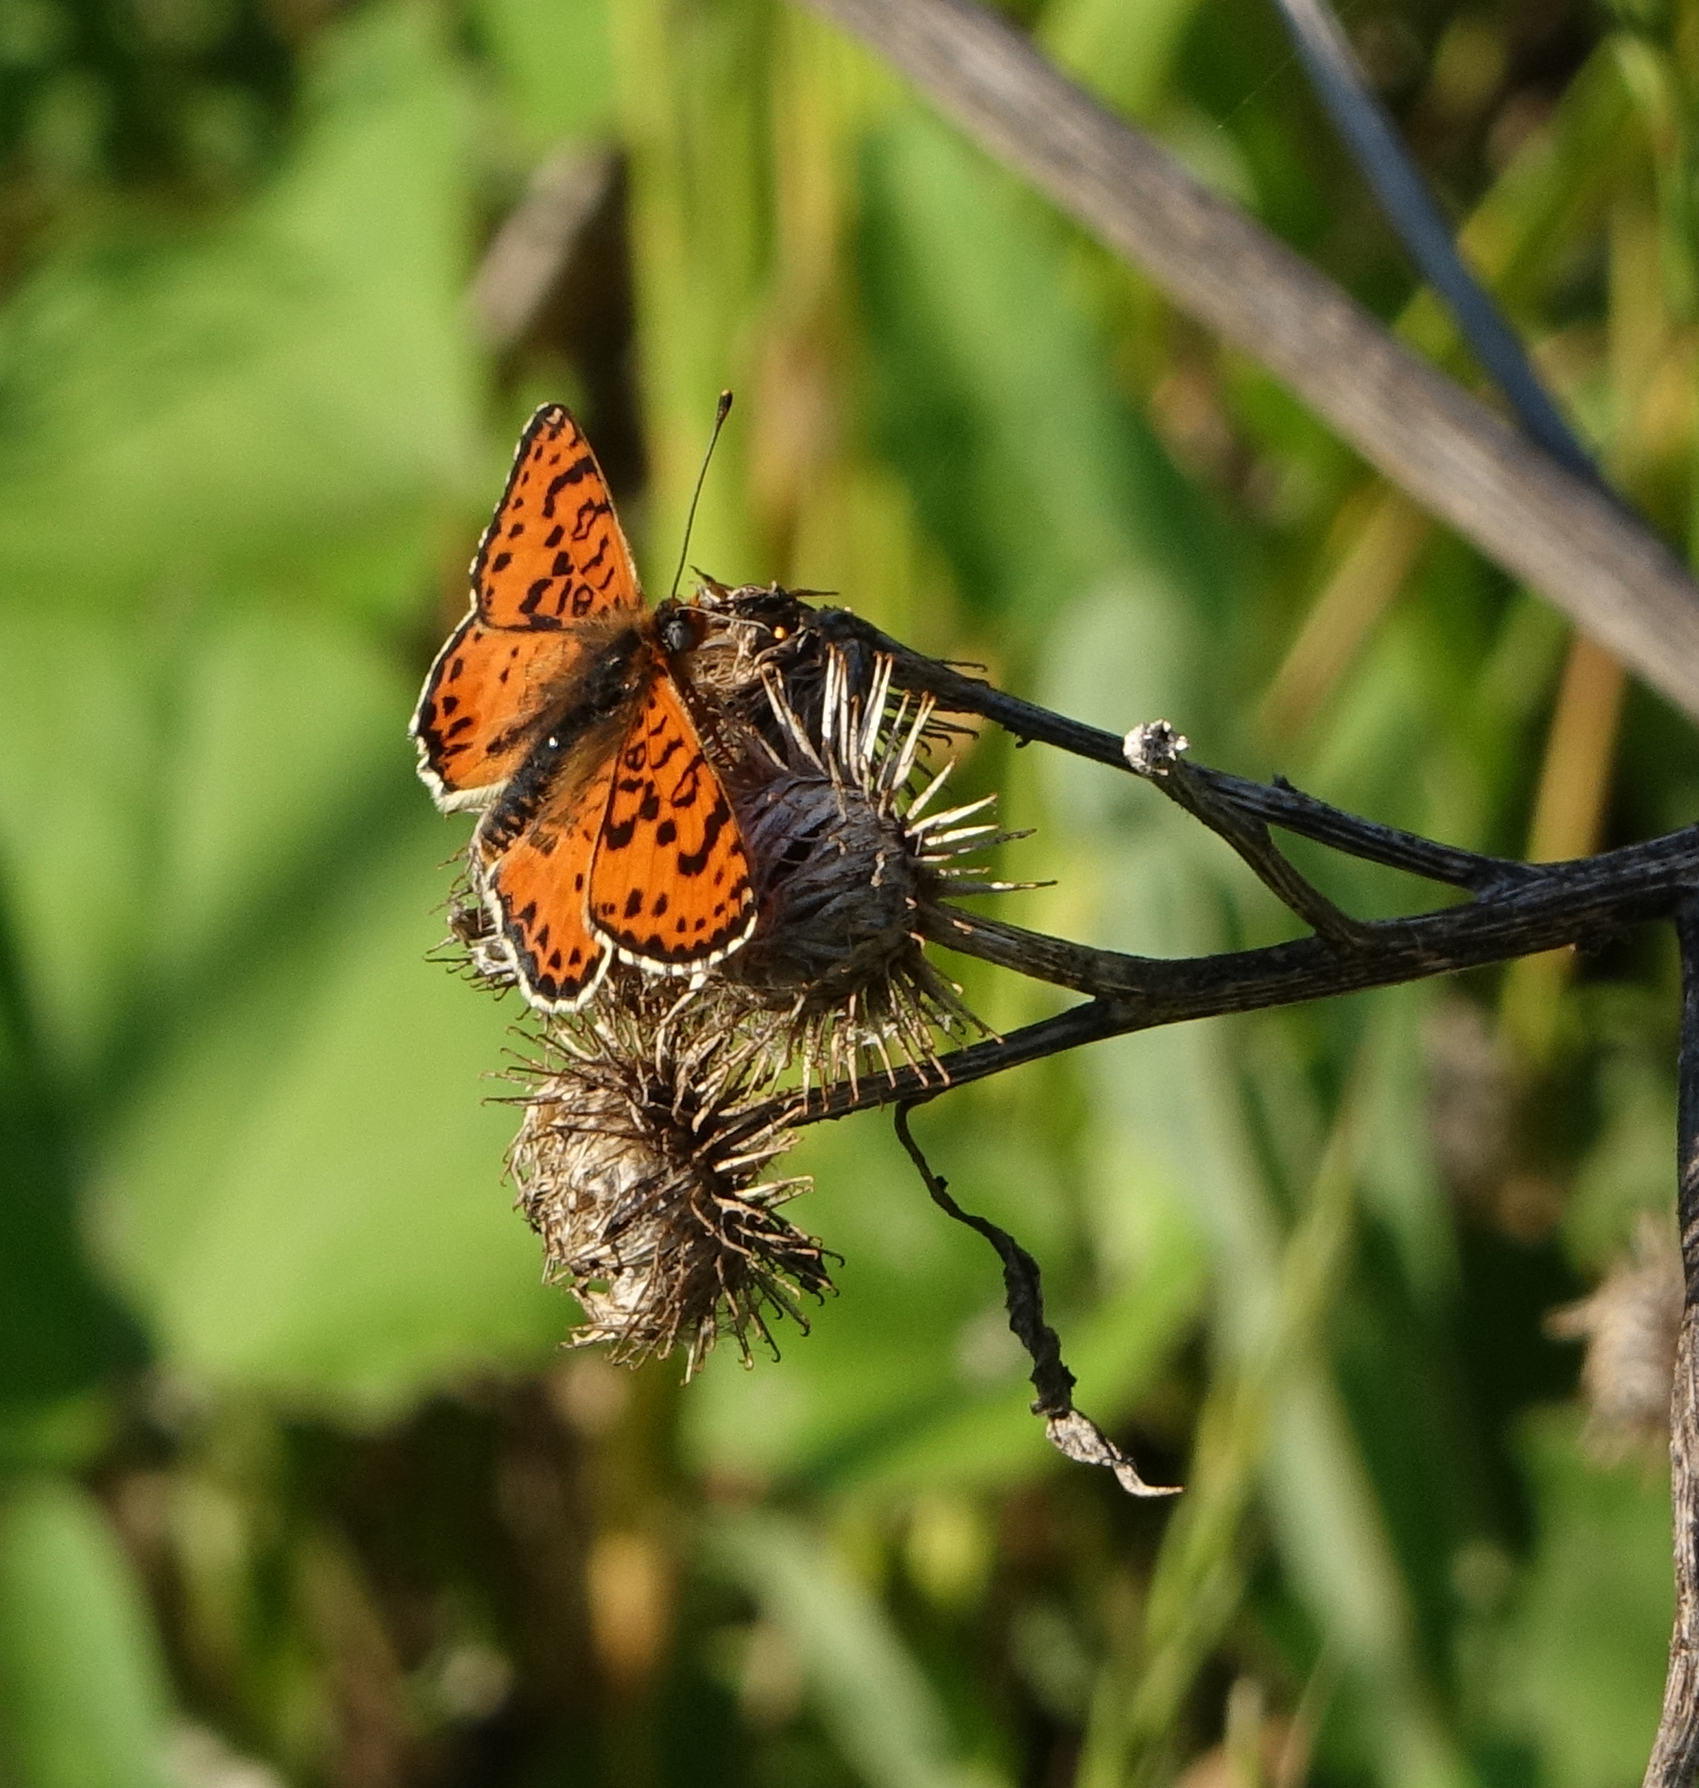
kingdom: Animalia
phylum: Arthropoda
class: Insecta
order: Lepidoptera
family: Nymphalidae
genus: Melitaea
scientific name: Melitaea didyma
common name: Spotted fritillary
